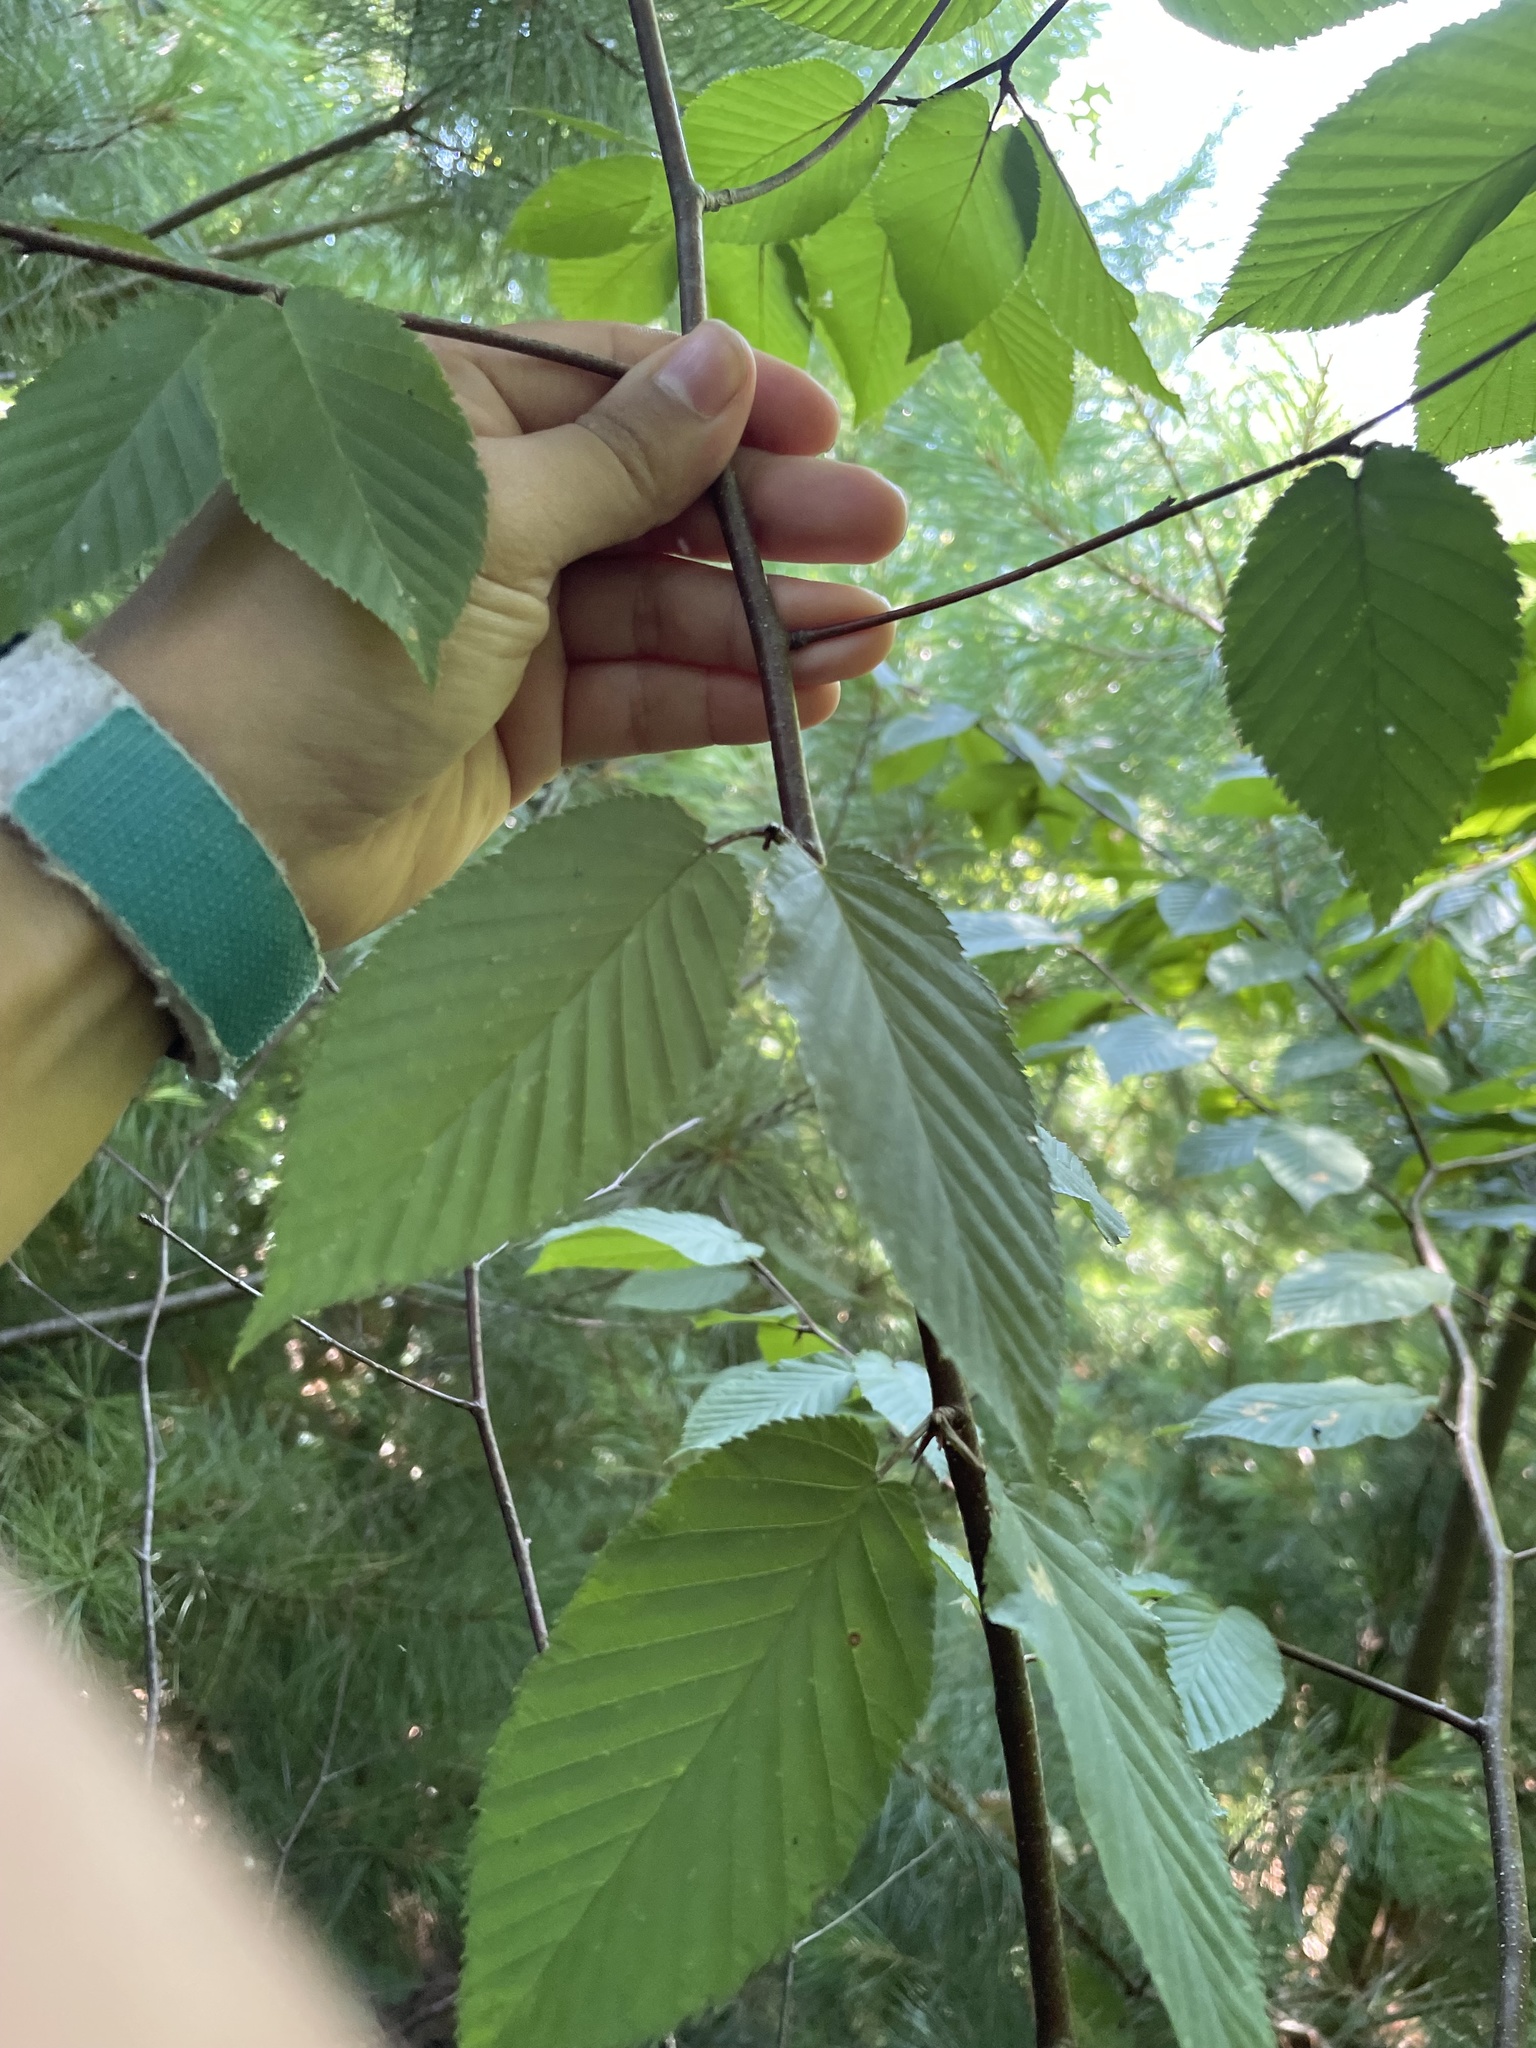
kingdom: Plantae
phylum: Tracheophyta
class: Magnoliopsida
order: Fagales
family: Betulaceae
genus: Betula
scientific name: Betula lenta
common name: Black birch
